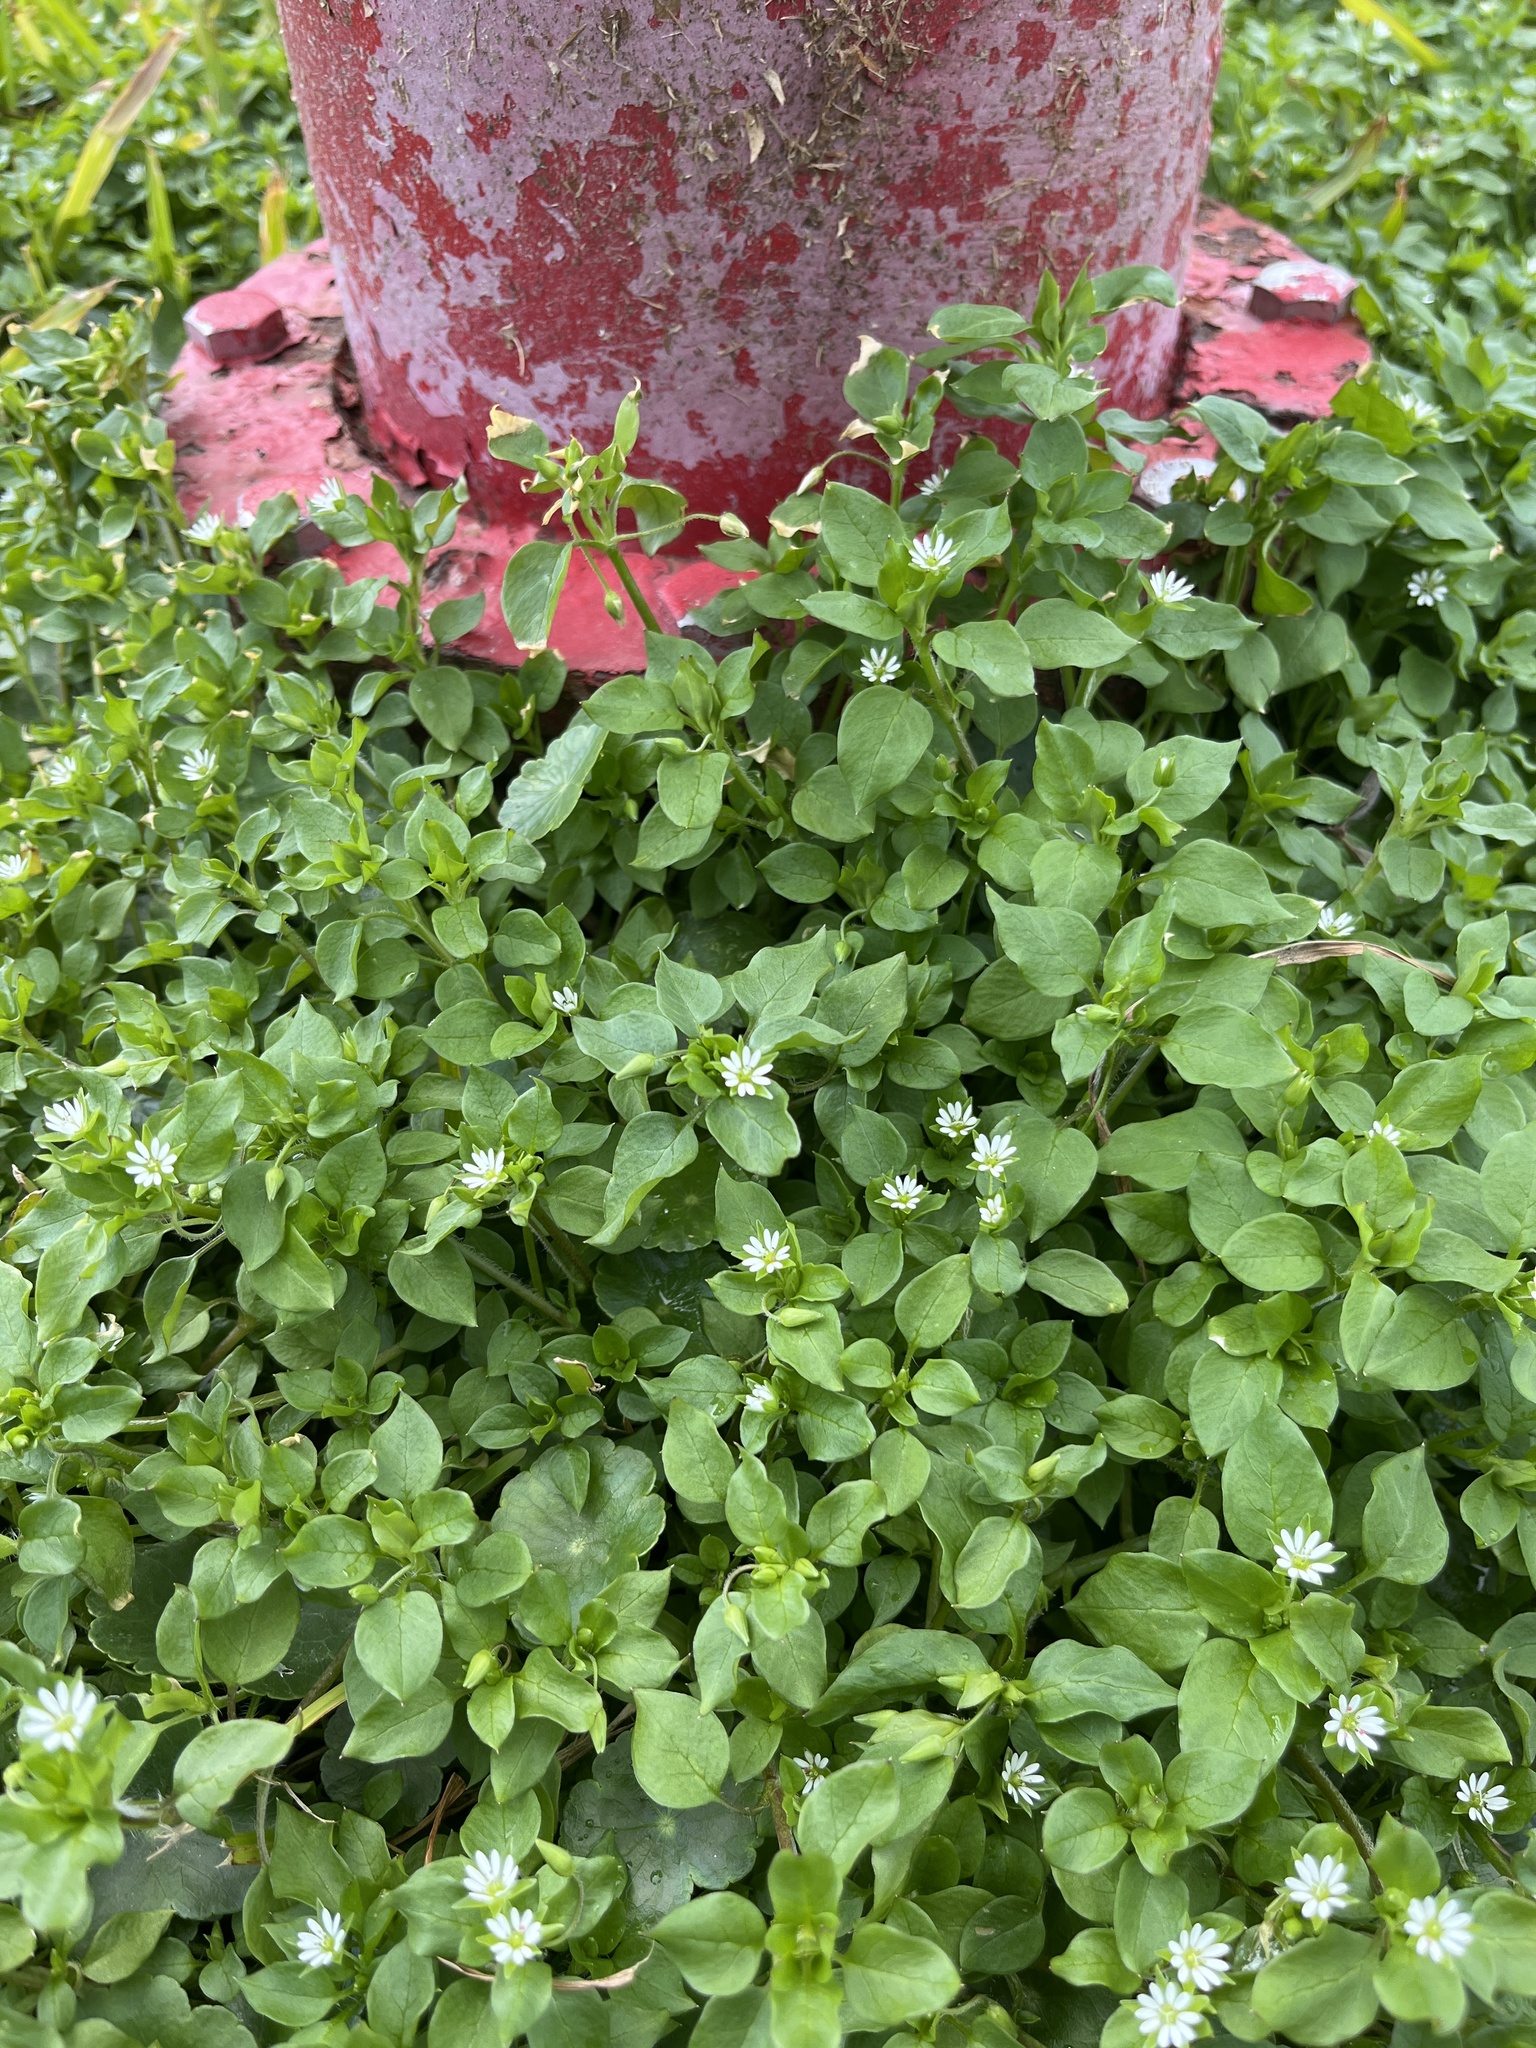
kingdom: Plantae
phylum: Tracheophyta
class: Magnoliopsida
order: Caryophyllales
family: Caryophyllaceae
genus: Stellaria
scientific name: Stellaria media
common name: Common chickweed
